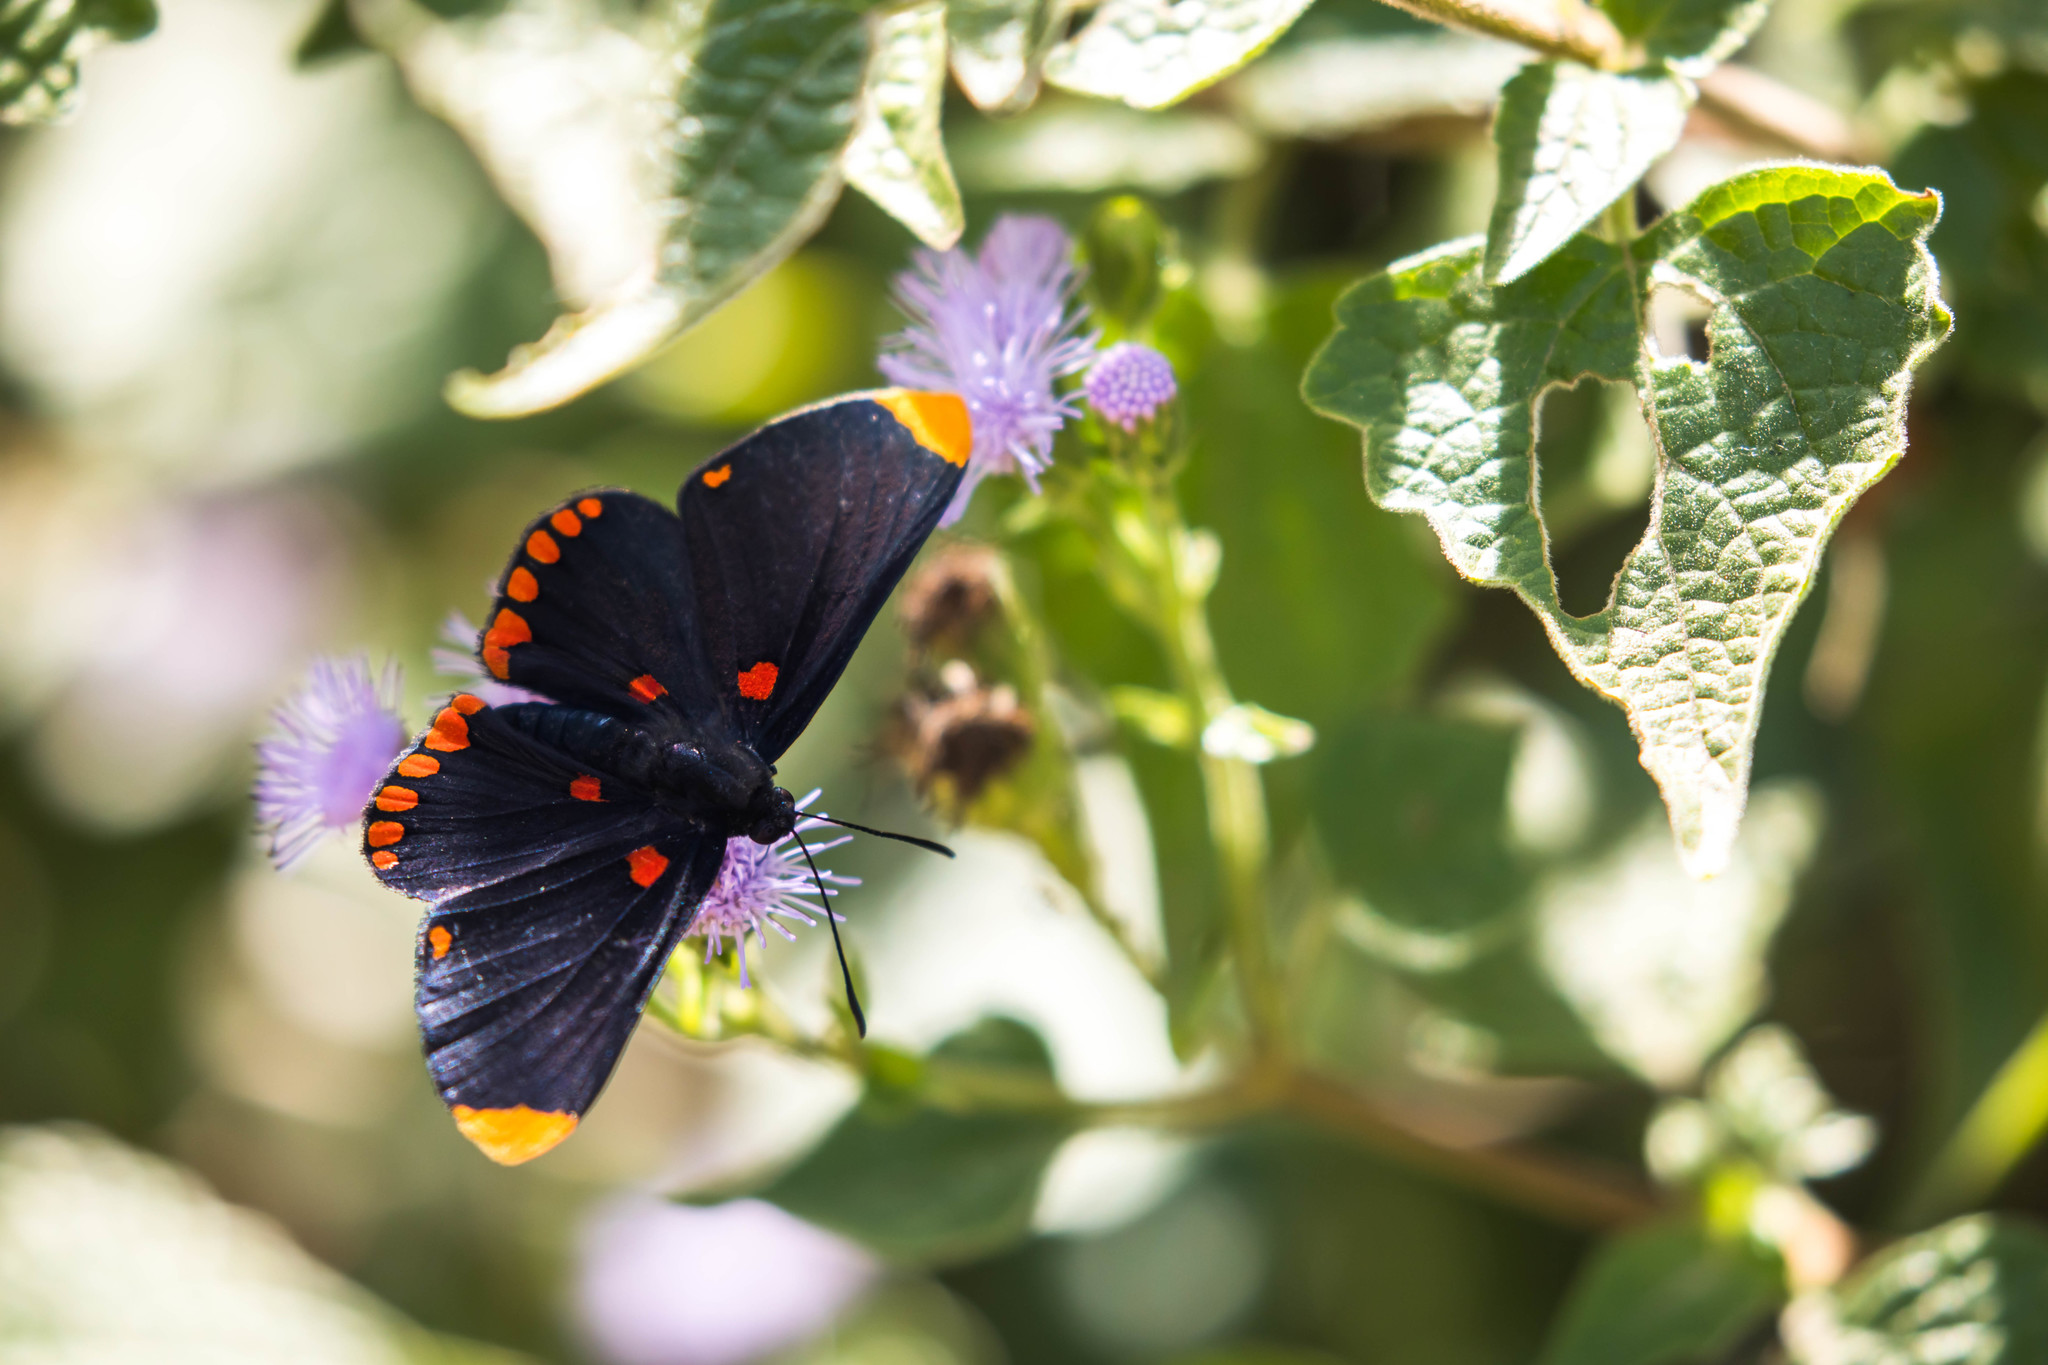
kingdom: Animalia
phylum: Arthropoda
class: Insecta
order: Lepidoptera
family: Lycaenidae
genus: Melanis
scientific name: Melanis pixe
